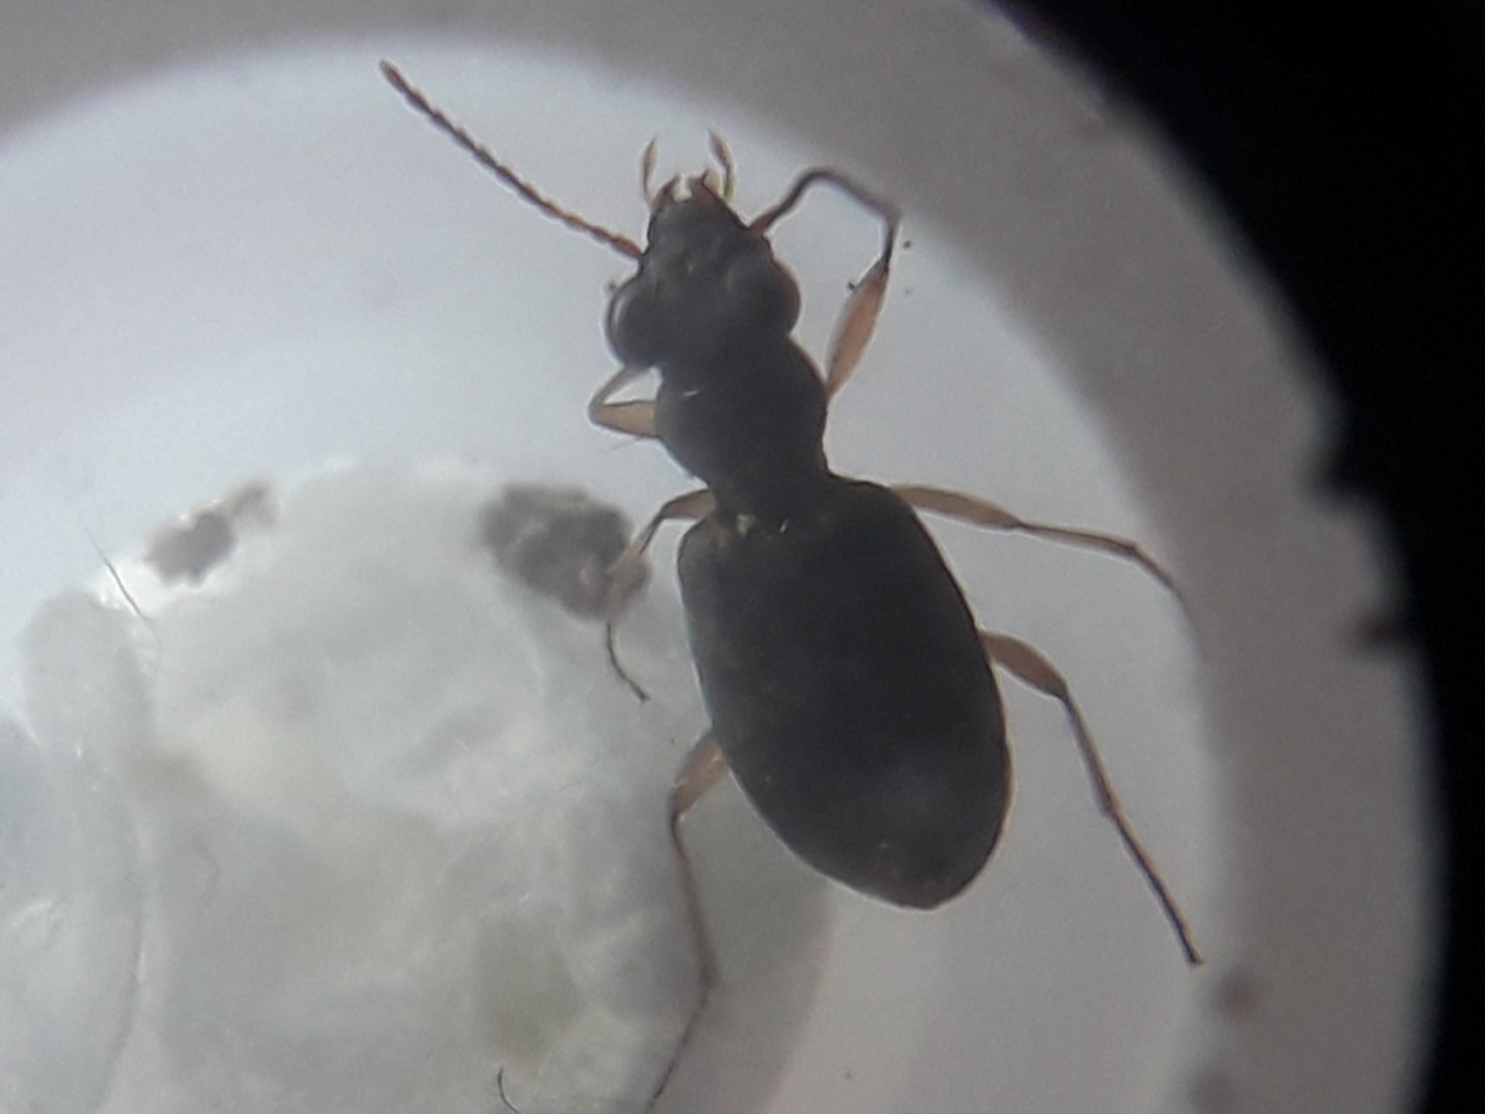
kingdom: Animalia
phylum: Arthropoda
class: Insecta
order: Coleoptera
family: Carabidae
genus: Asaphidion
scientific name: Asaphidion curtum
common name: Ground beetle
